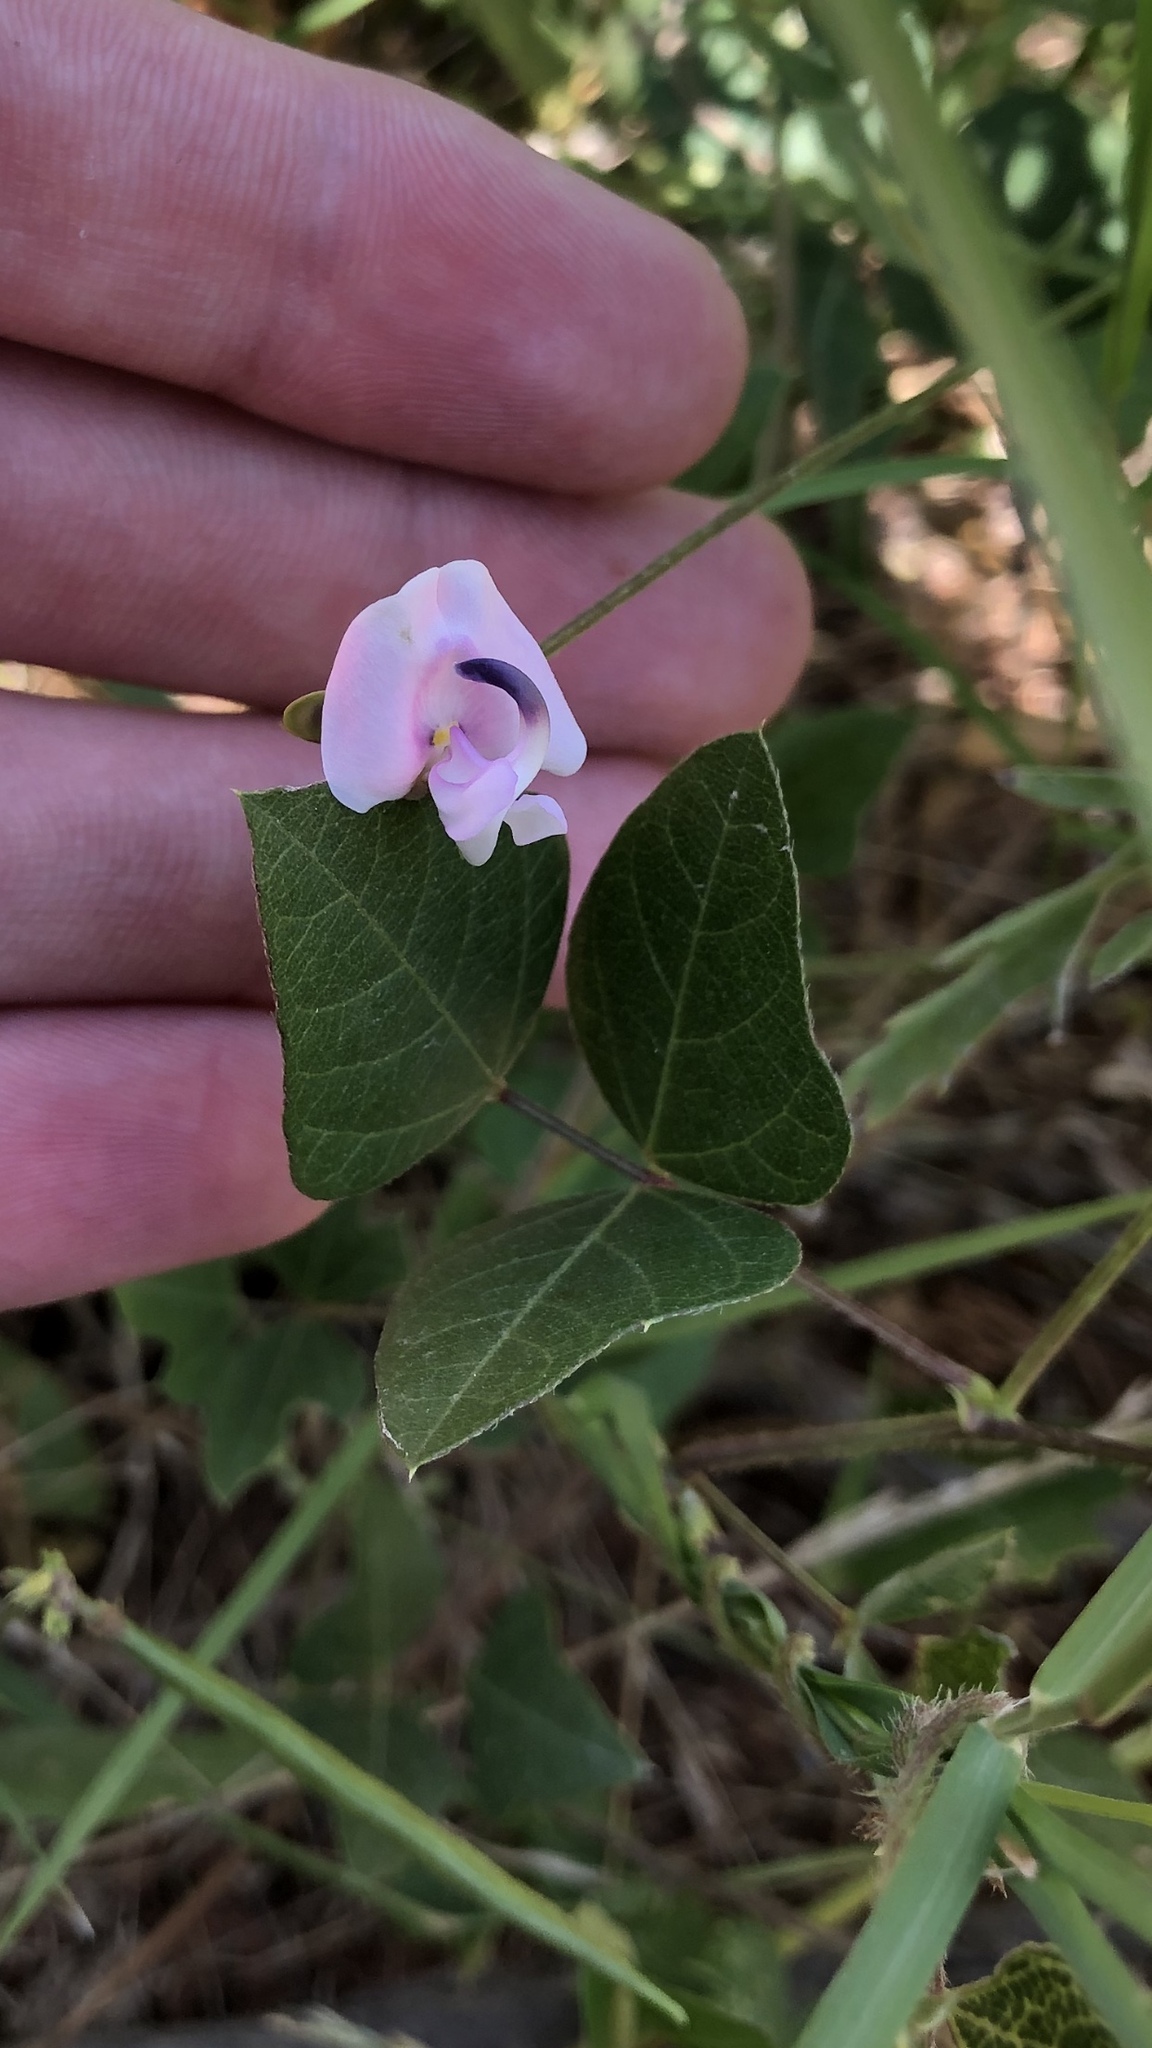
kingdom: Plantae
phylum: Tracheophyta
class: Magnoliopsida
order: Fabales
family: Fabaceae
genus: Strophostyles
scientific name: Strophostyles helvola
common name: Trailing wild bean
